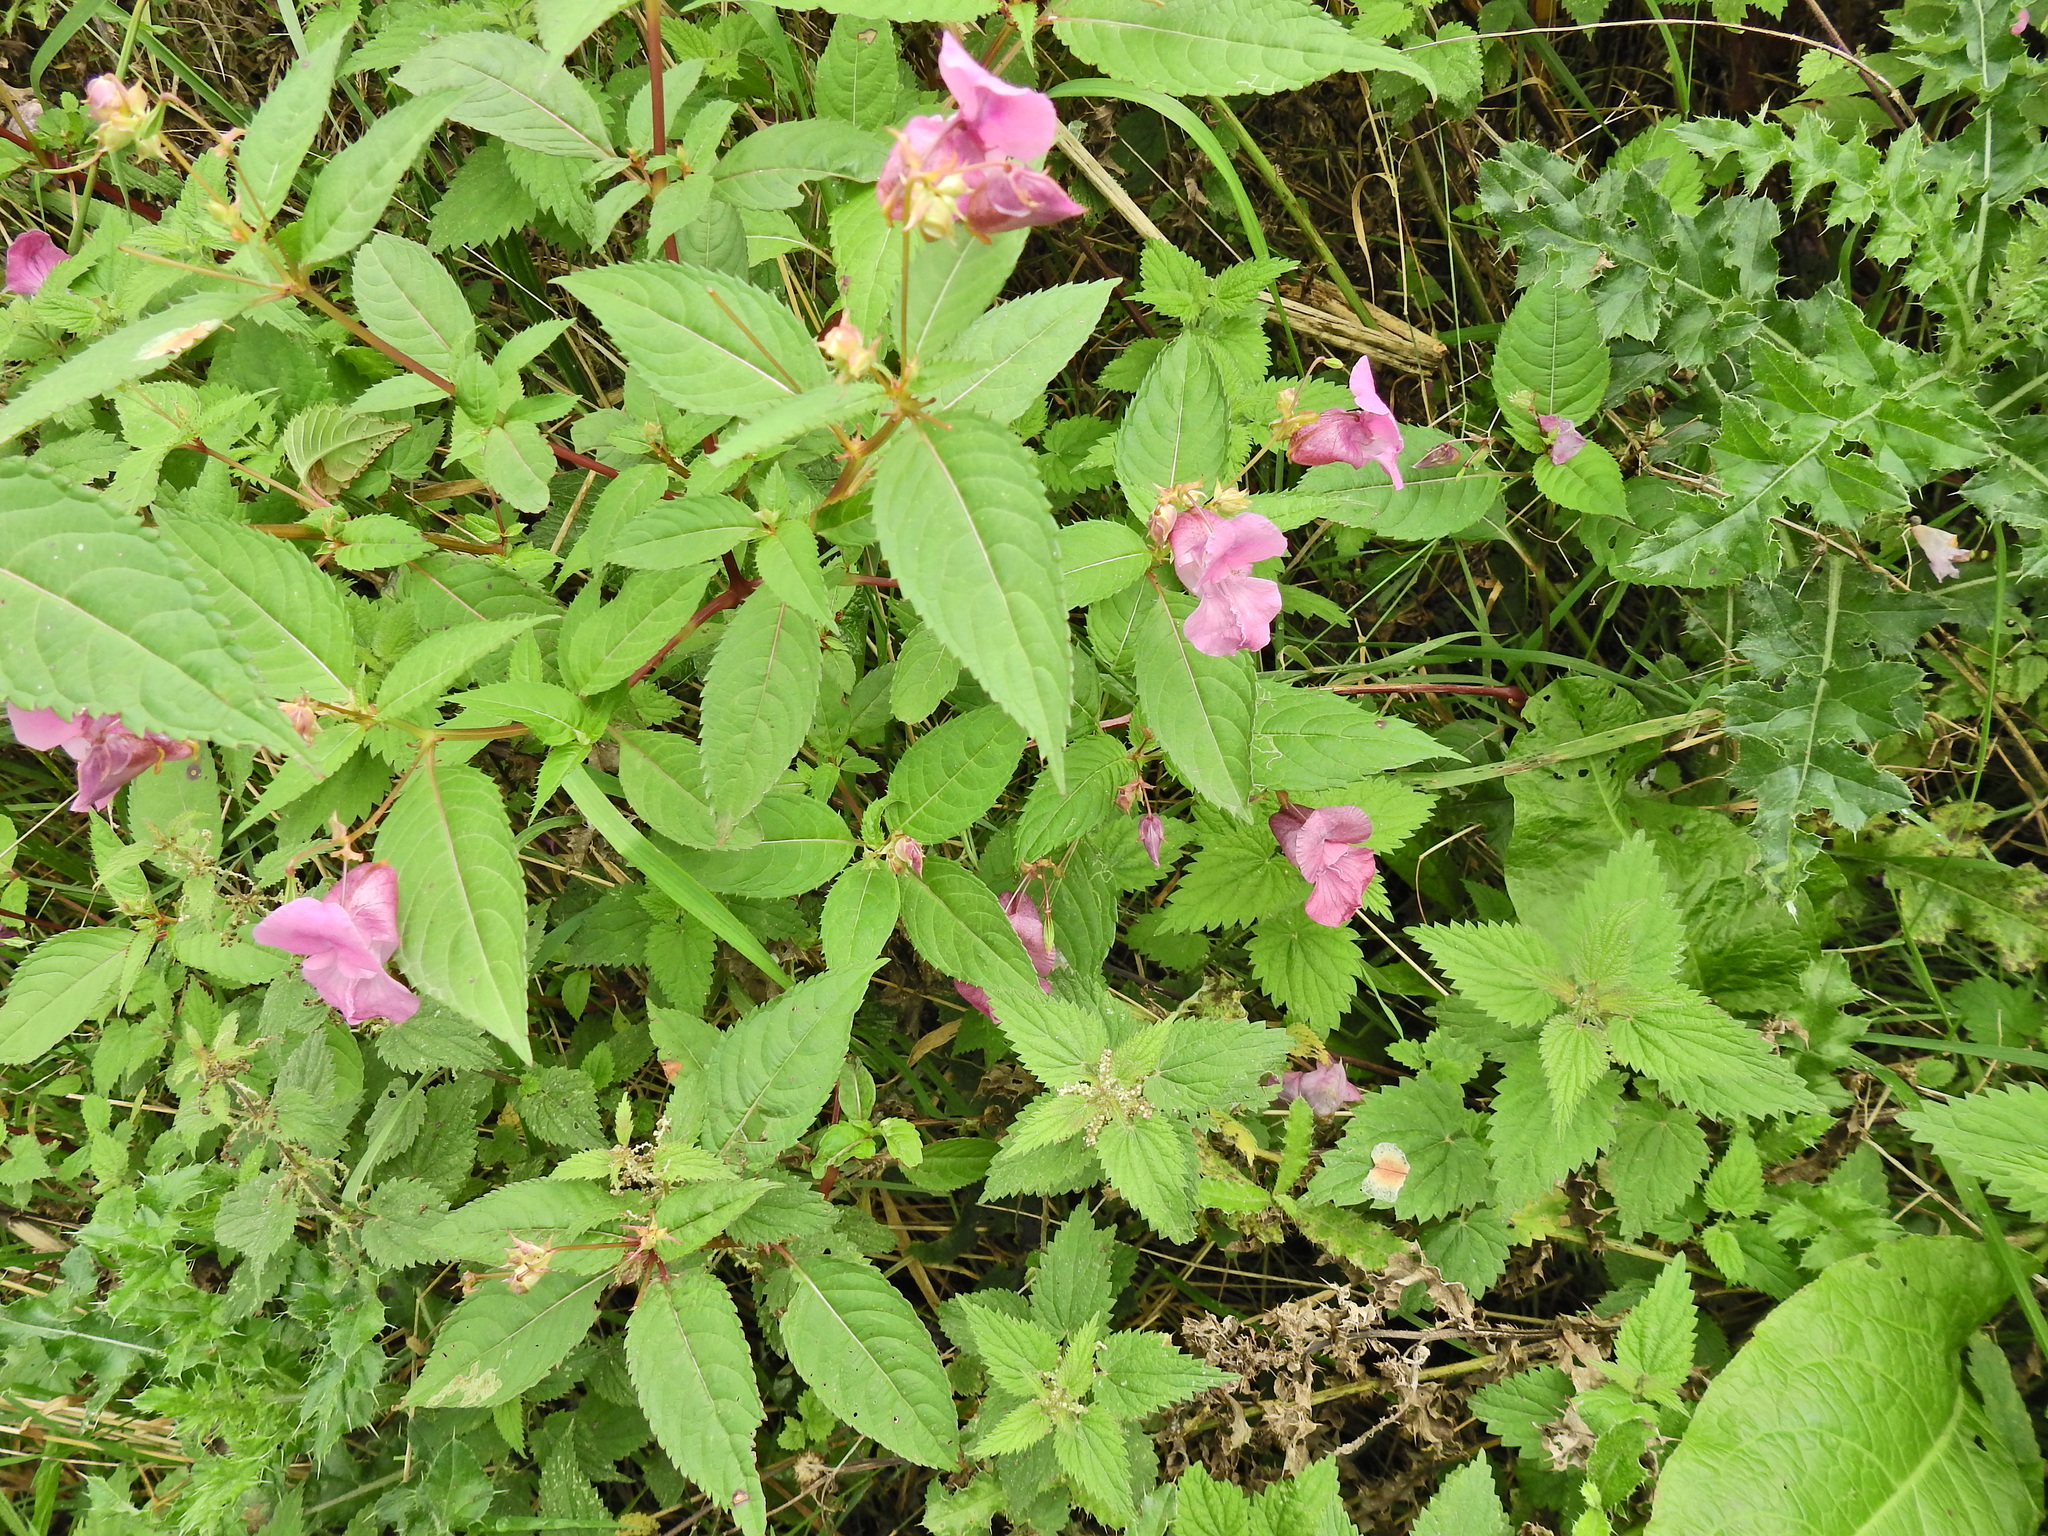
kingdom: Plantae
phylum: Tracheophyta
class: Magnoliopsida
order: Ericales
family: Balsaminaceae
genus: Impatiens
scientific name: Impatiens glandulifera
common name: Himalayan balsam
